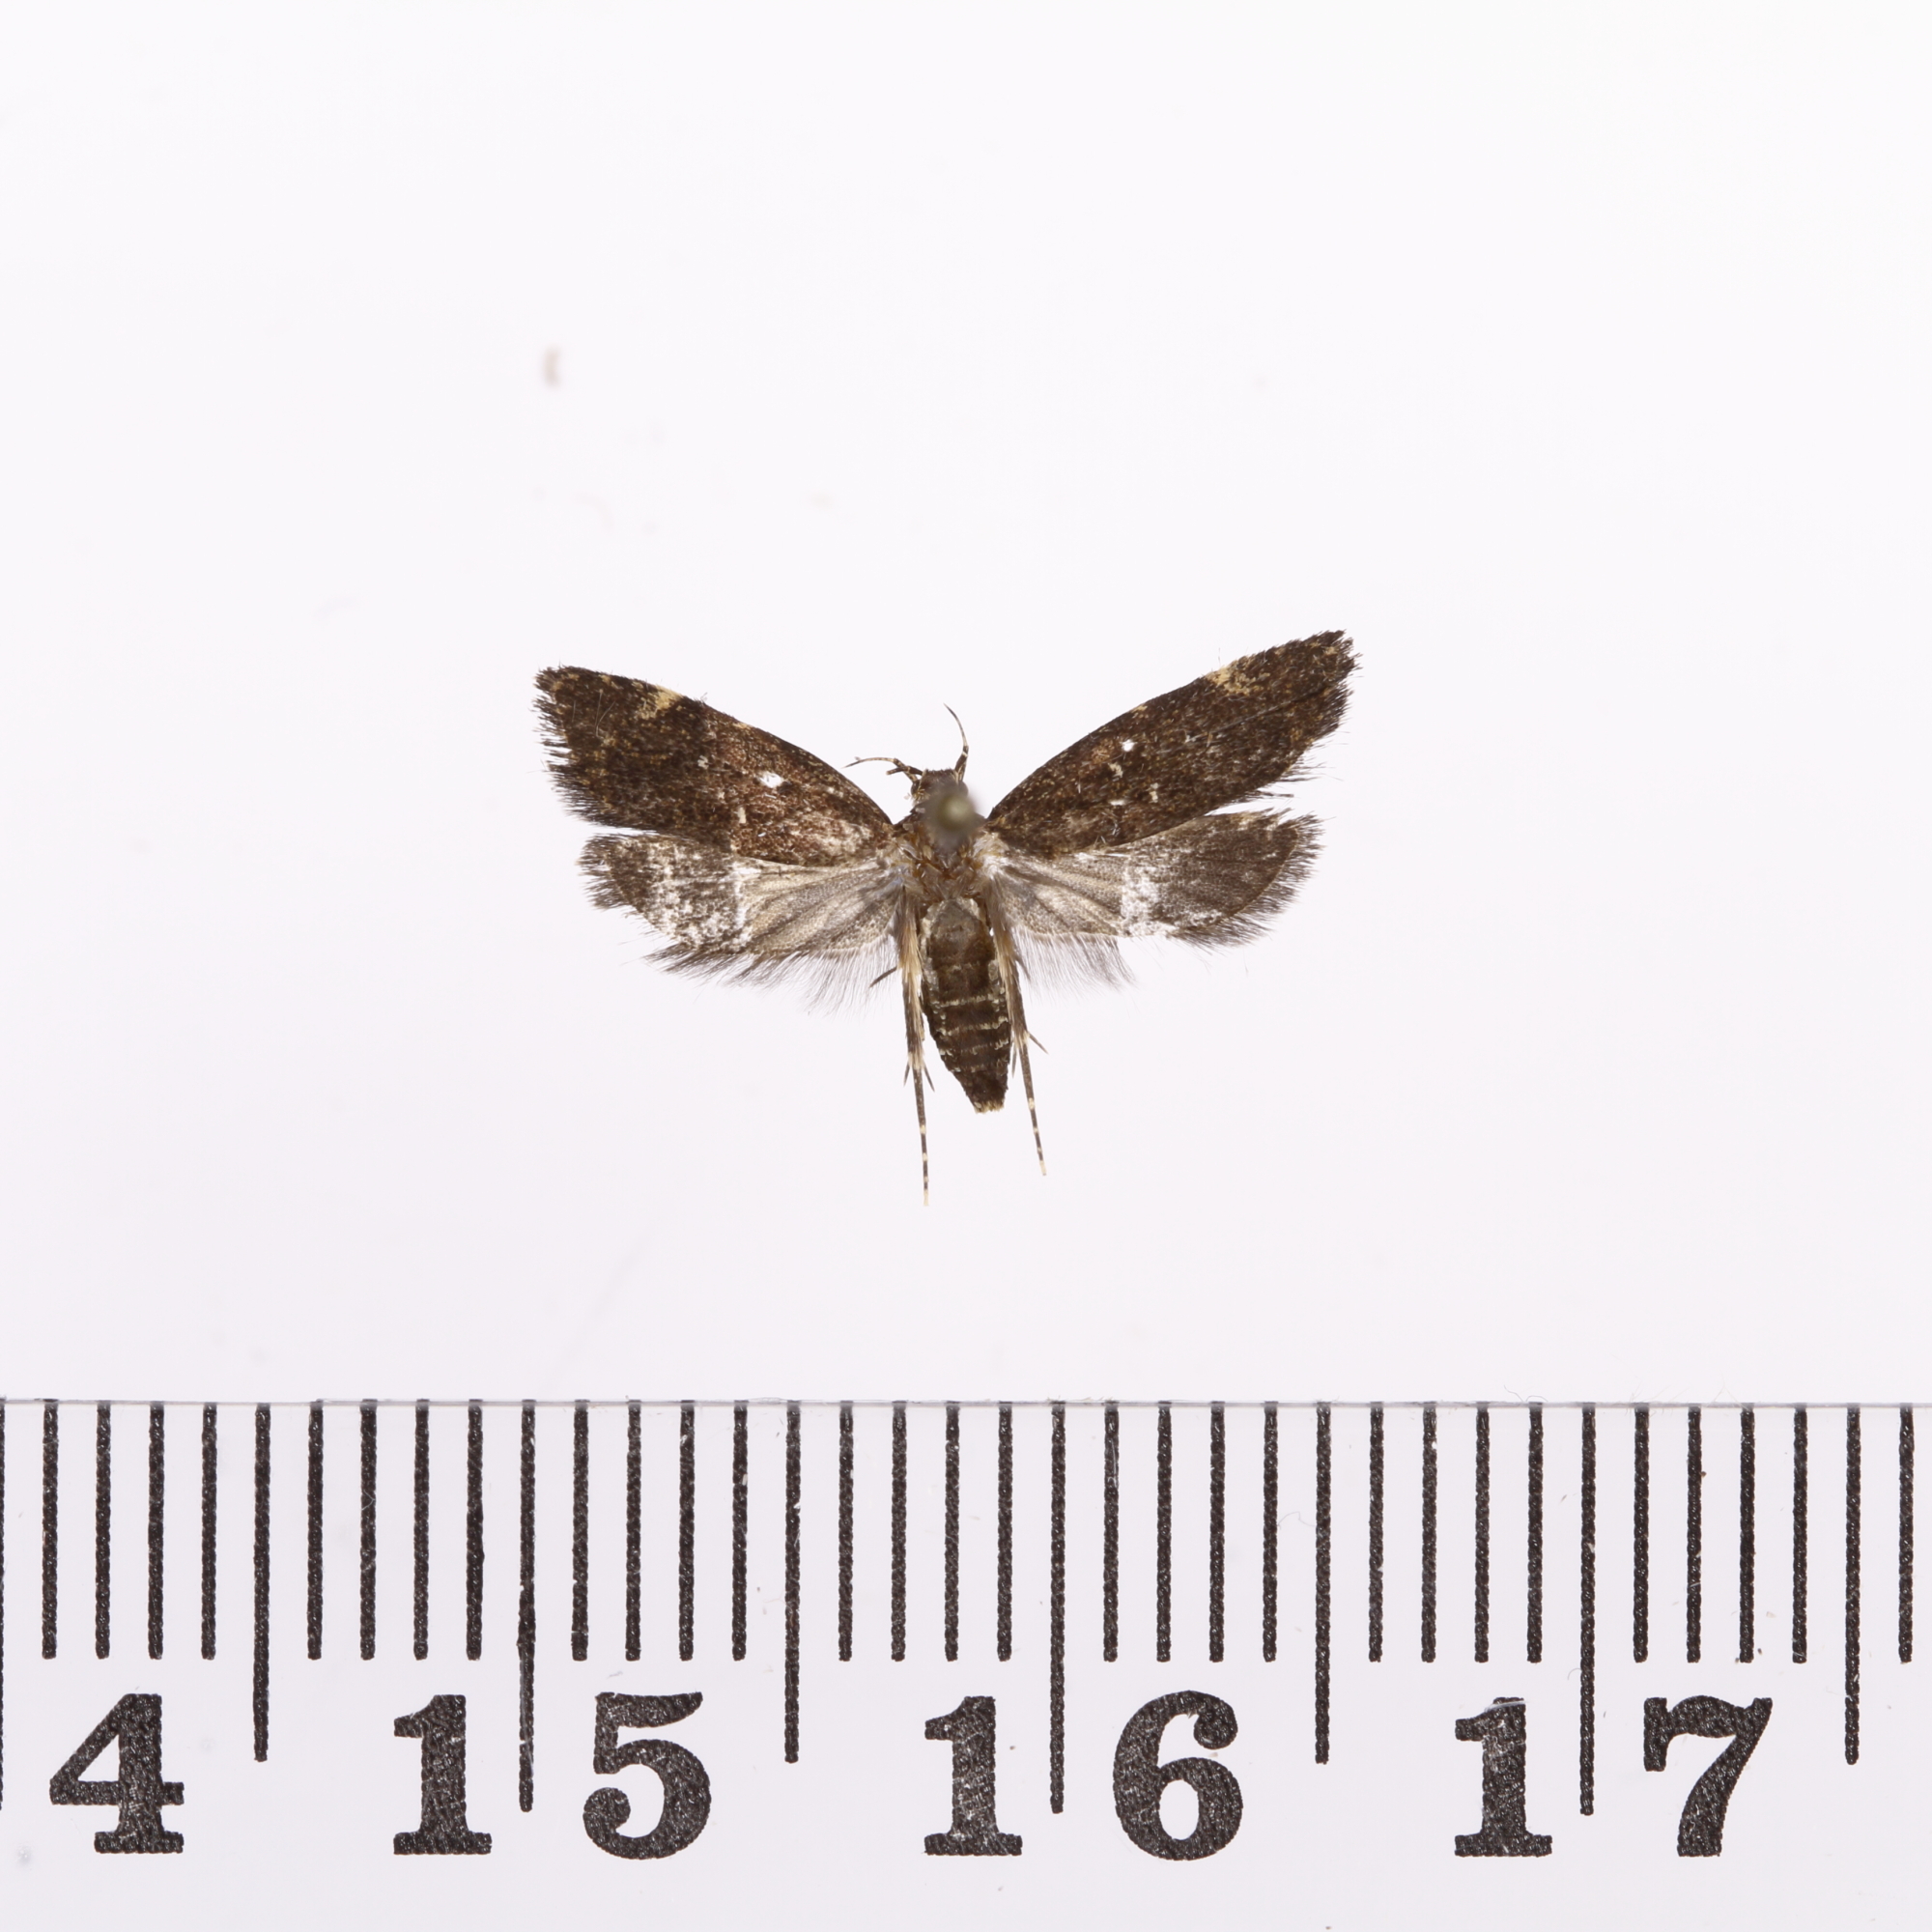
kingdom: Animalia
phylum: Arthropoda
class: Insecta
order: Lepidoptera
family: Oecophoridae
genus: Lathicrossa
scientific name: Lathicrossa leucocentra
